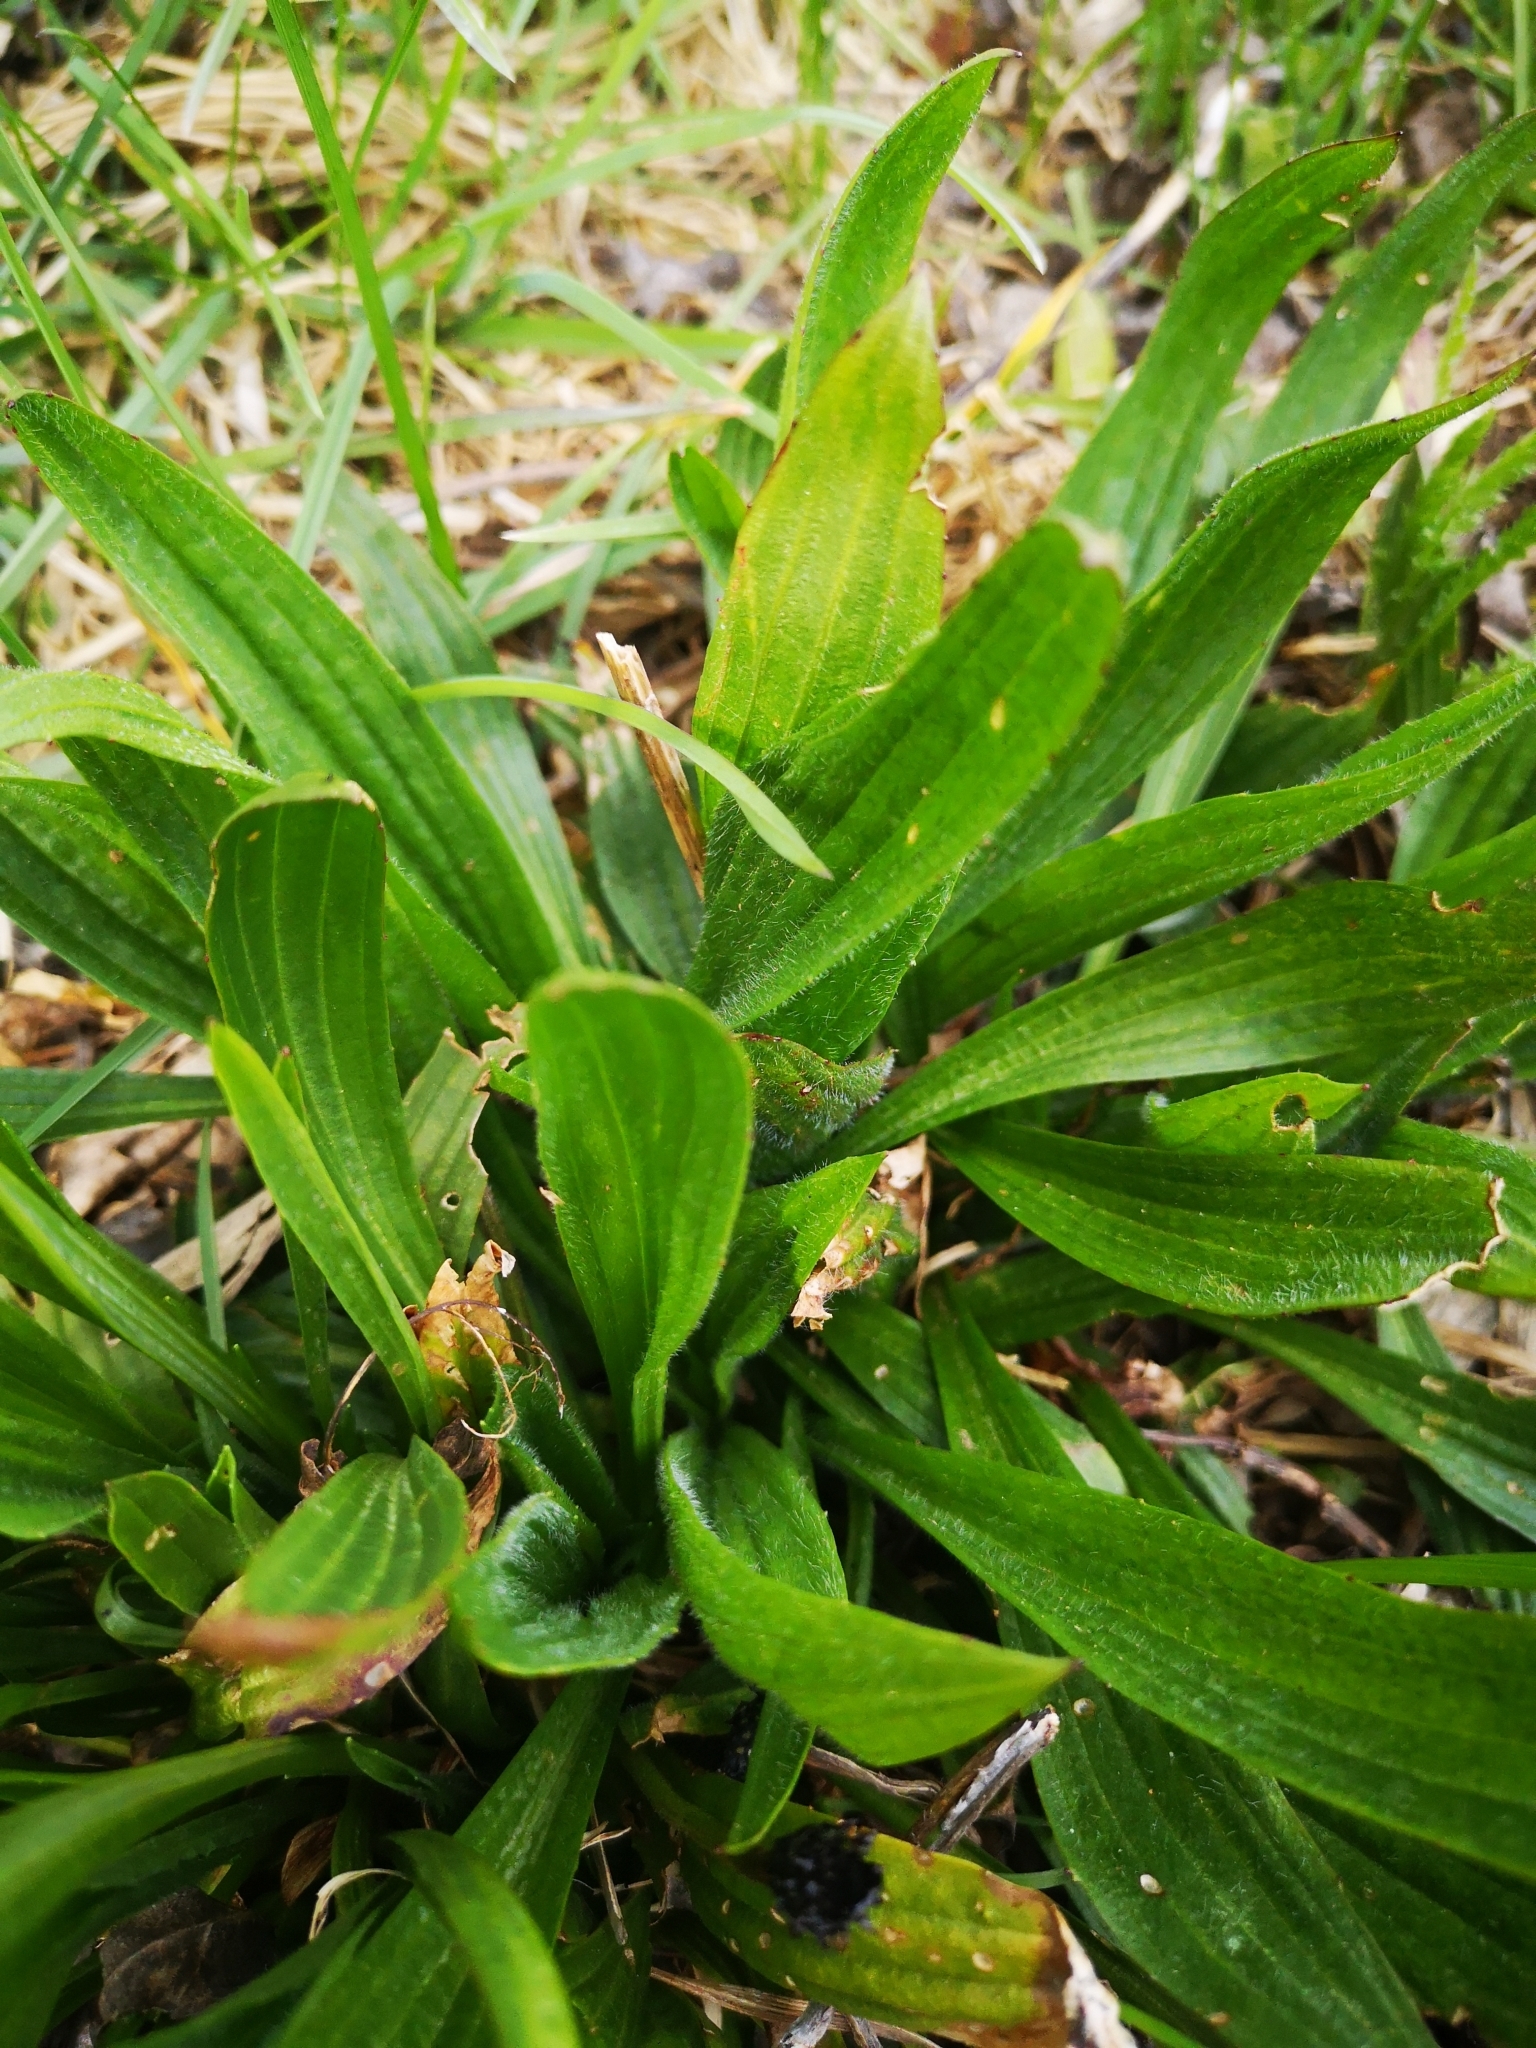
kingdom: Plantae
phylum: Tracheophyta
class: Magnoliopsida
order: Lamiales
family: Plantaginaceae
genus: Plantago
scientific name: Plantago lanceolata
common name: Ribwort plantain
